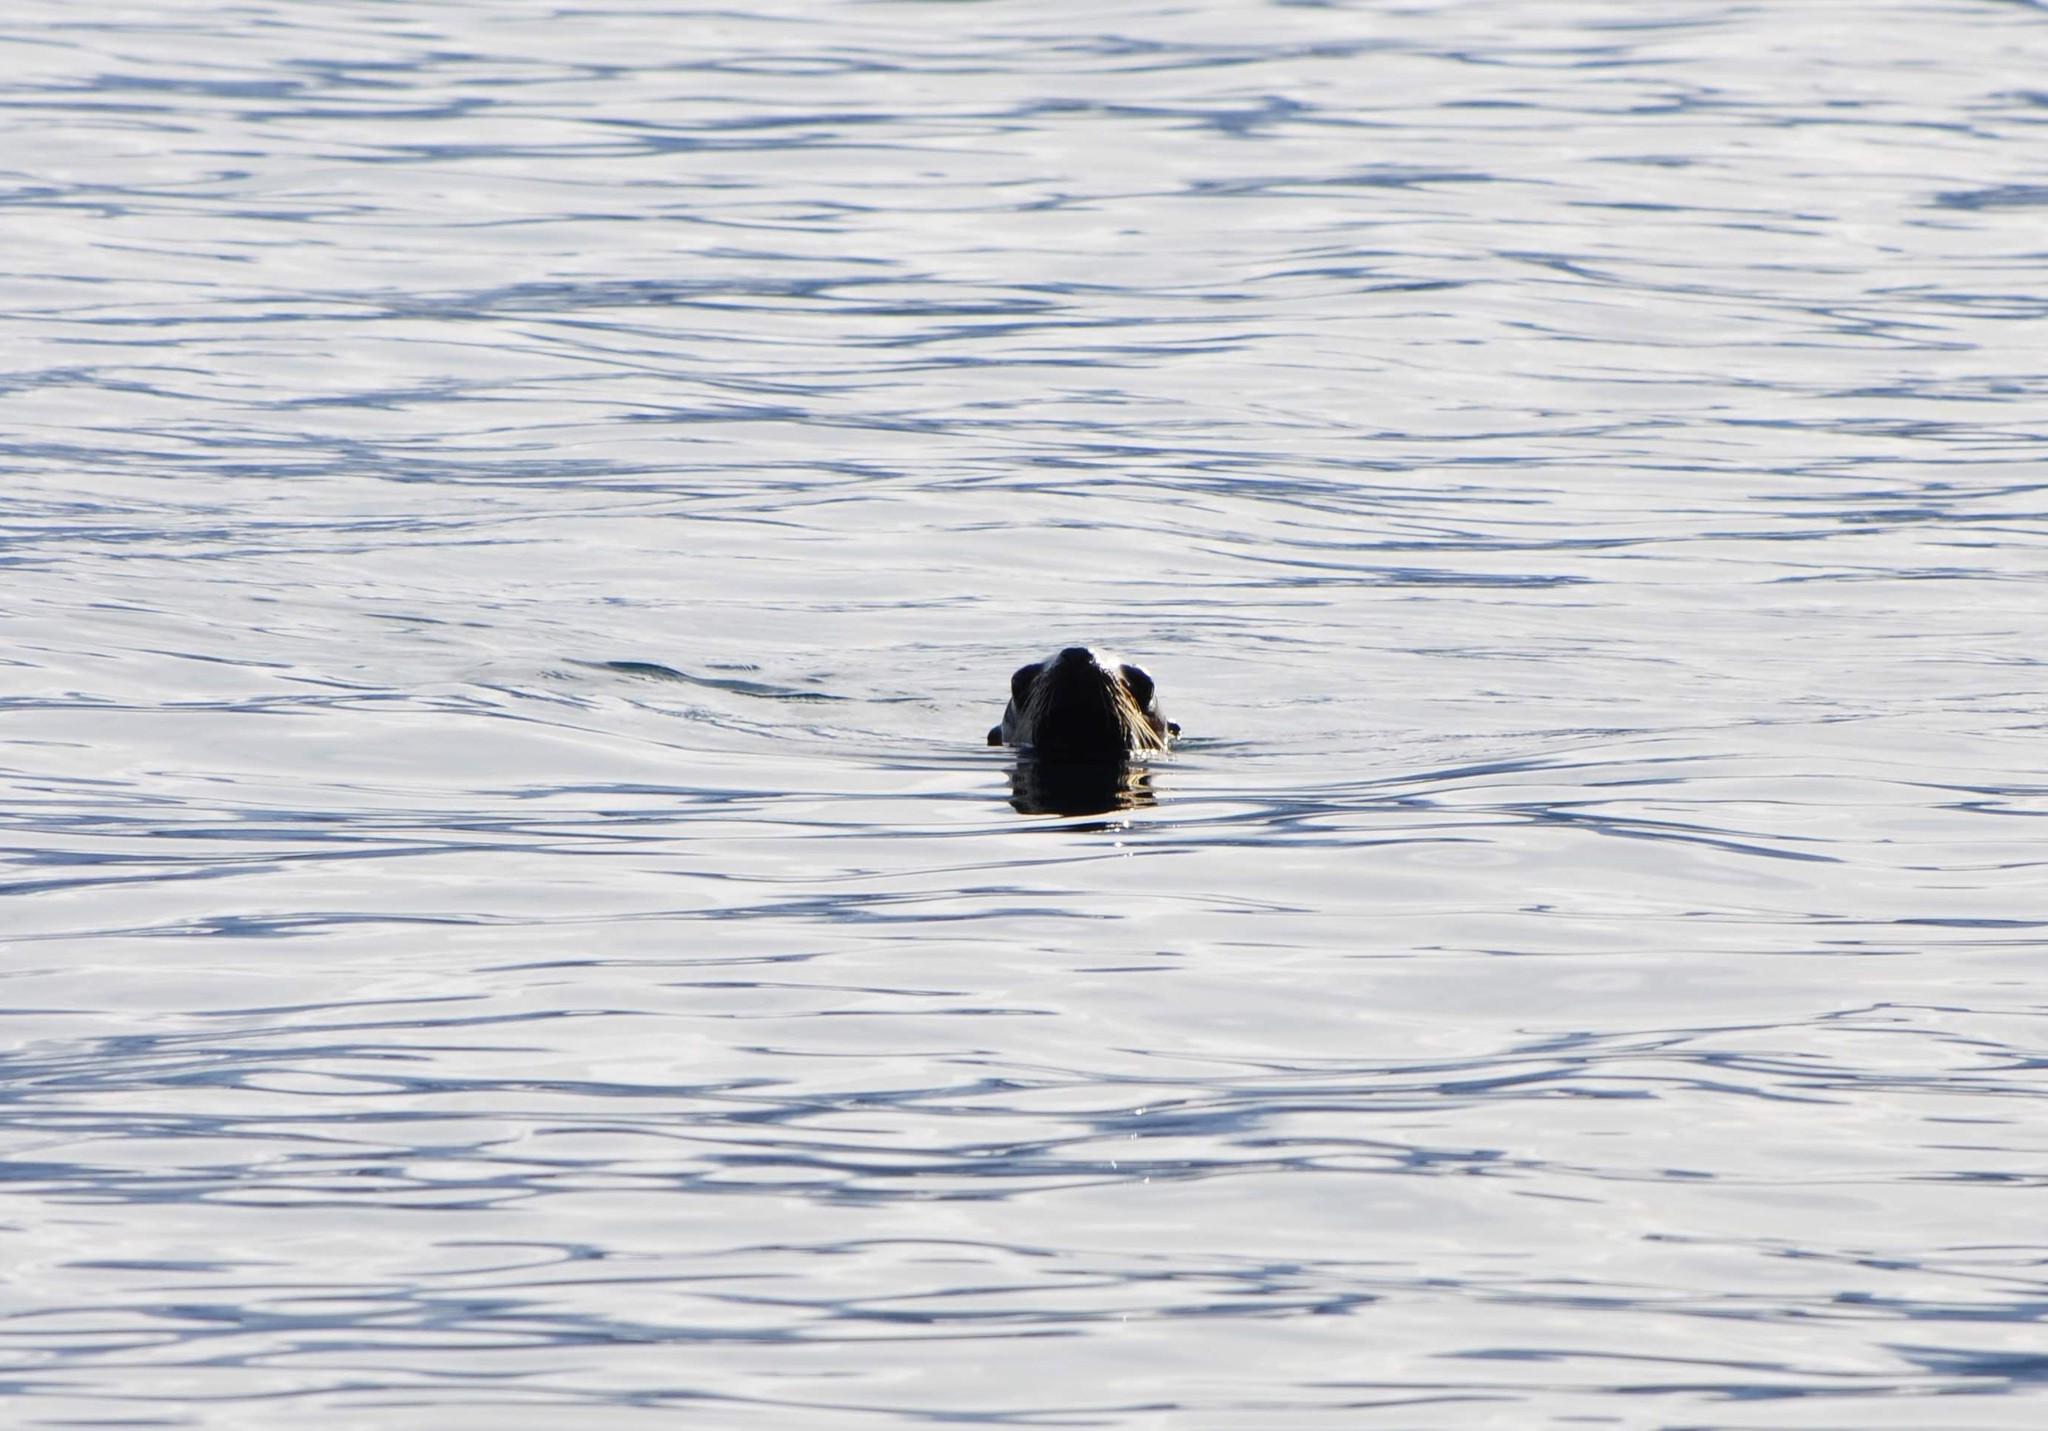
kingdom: Animalia
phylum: Chordata
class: Mammalia
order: Carnivora
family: Otariidae
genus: Eumetopias
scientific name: Eumetopias jubatus
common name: Steller sea lion
